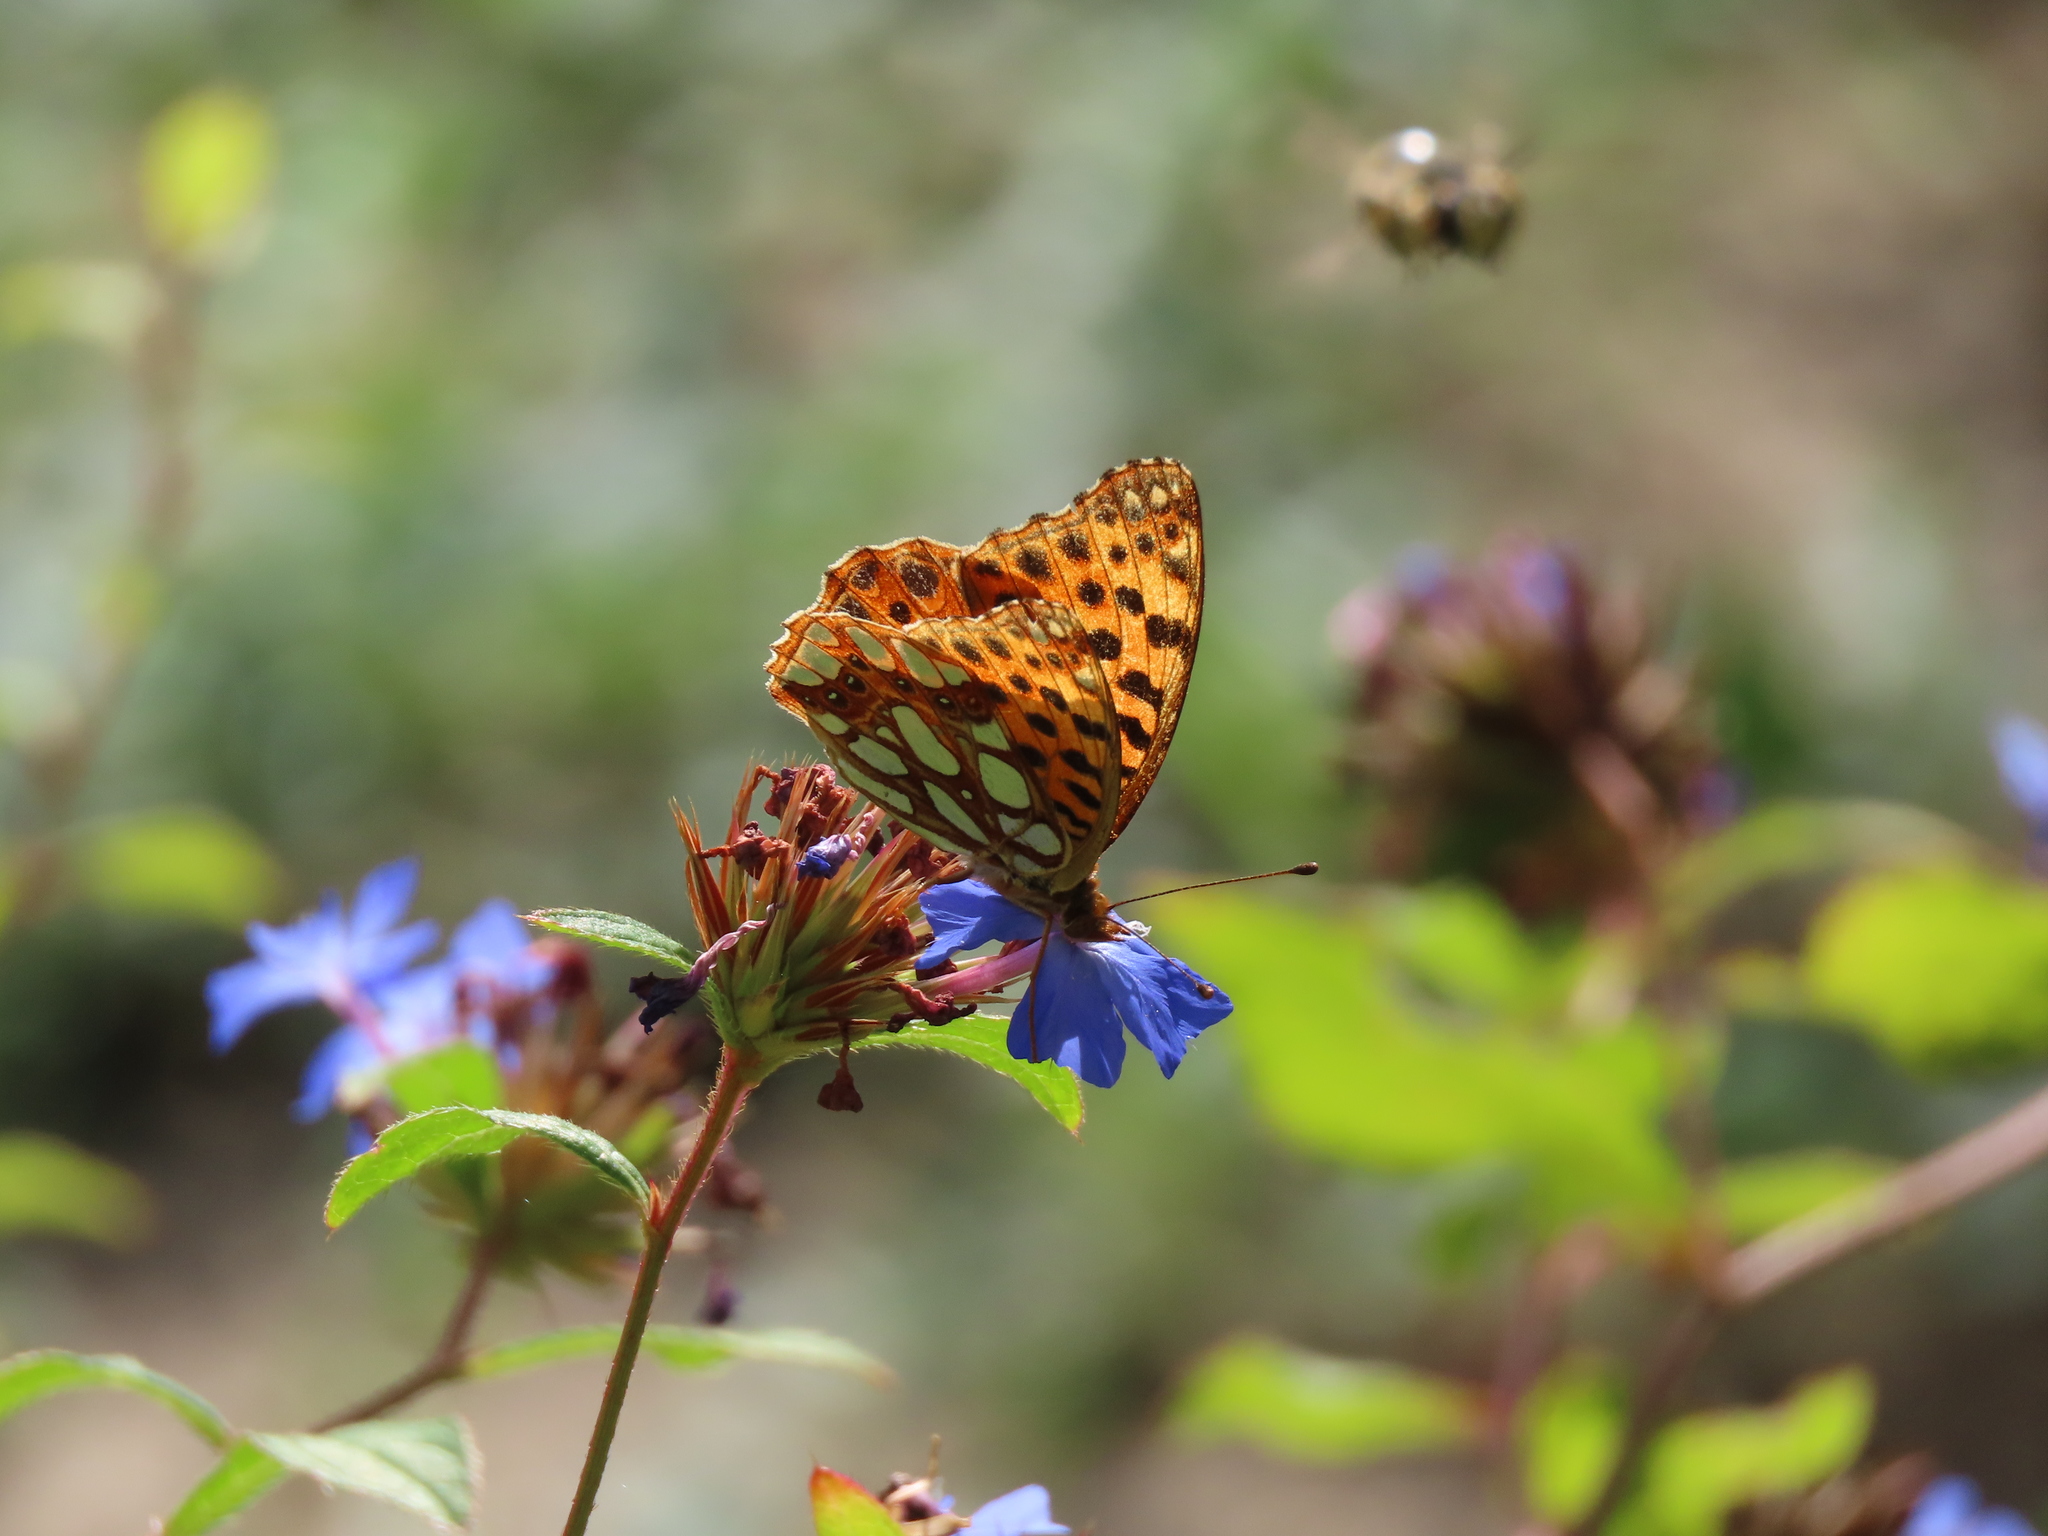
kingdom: Animalia
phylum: Arthropoda
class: Insecta
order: Lepidoptera
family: Nymphalidae
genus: Issoria
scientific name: Issoria lathonia
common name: Queen of spain fritillary
